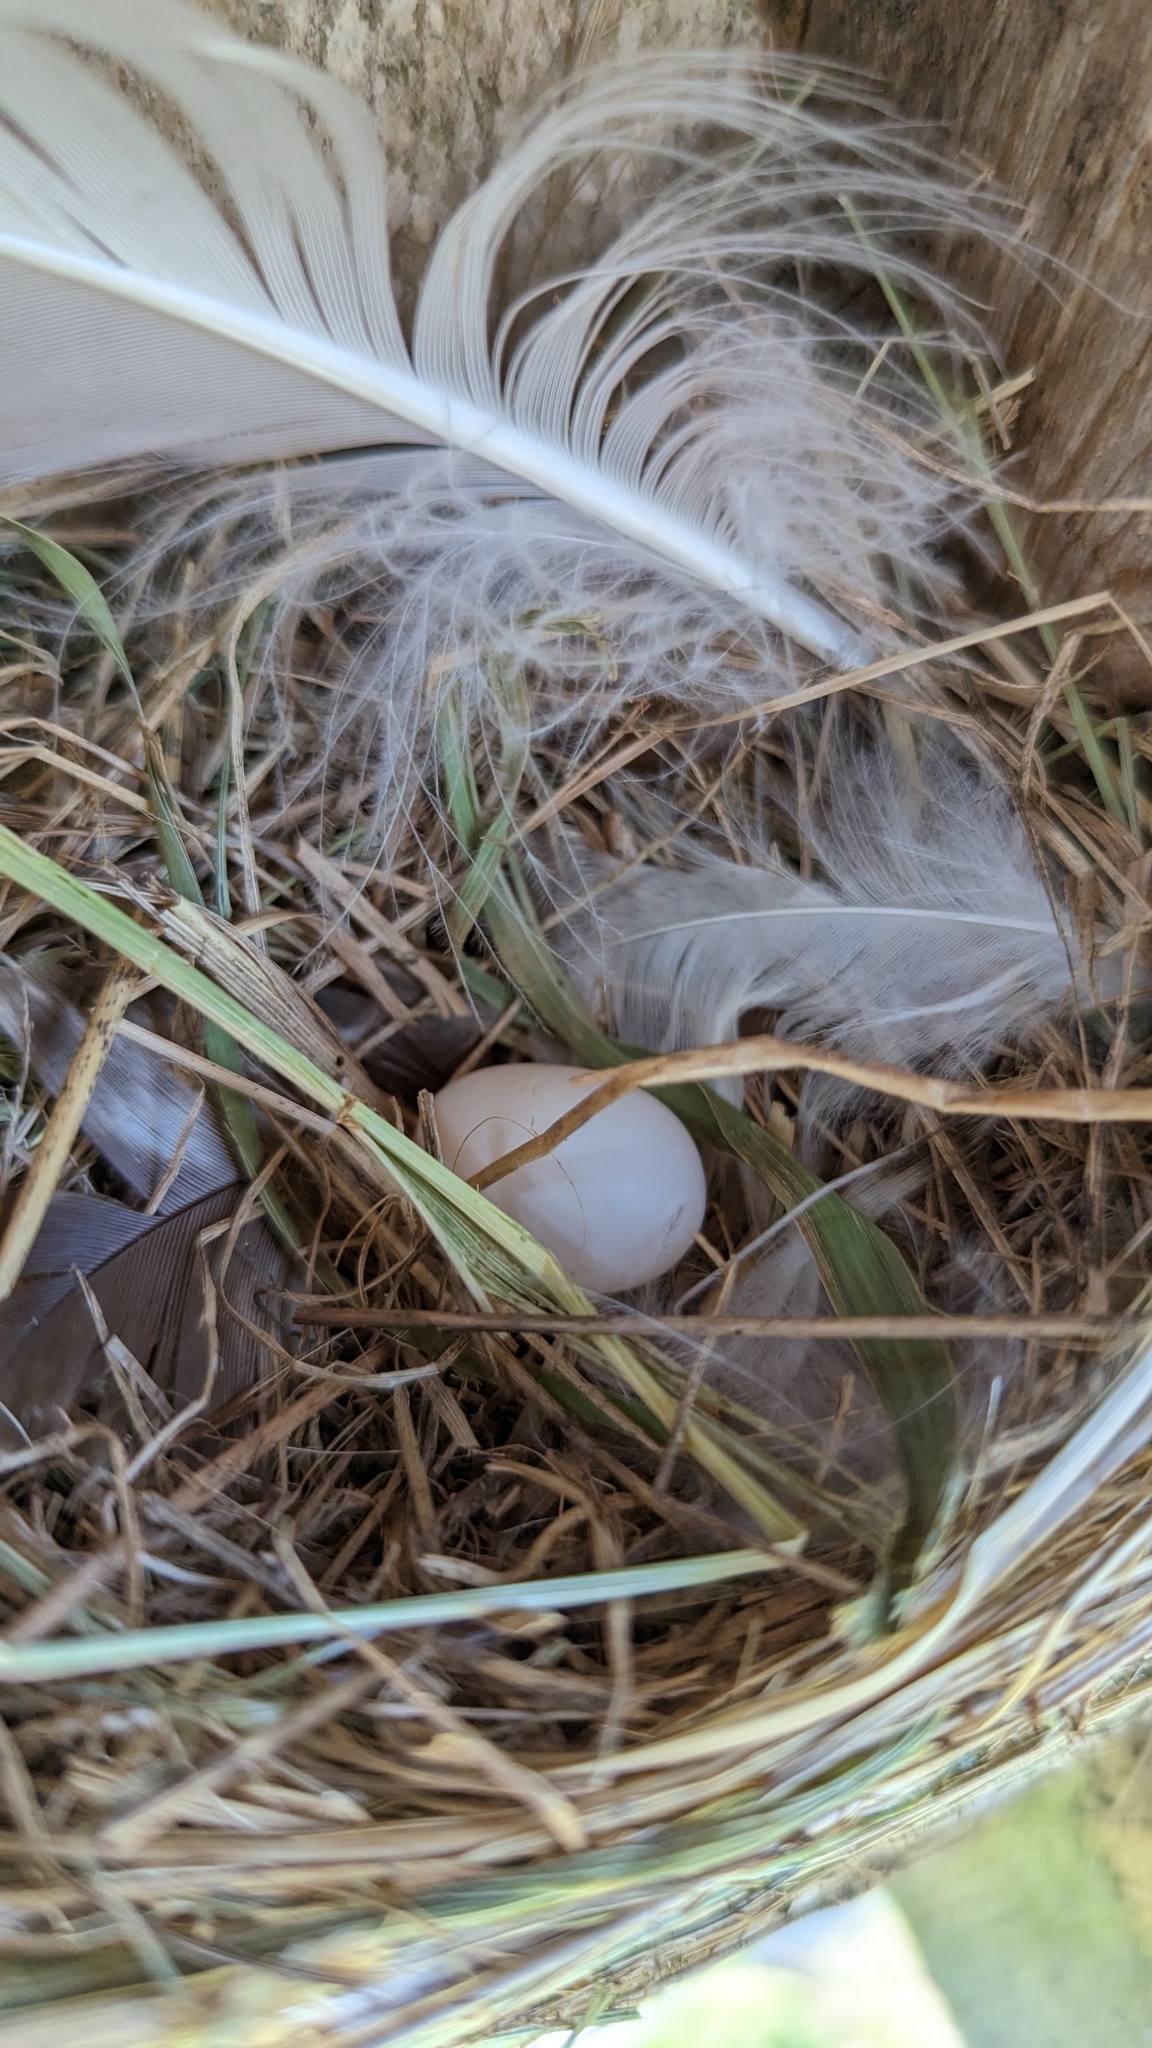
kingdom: Animalia
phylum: Chordata
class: Aves
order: Passeriformes
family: Hirundinidae
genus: Tachycineta
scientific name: Tachycineta bicolor
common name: Tree swallow
